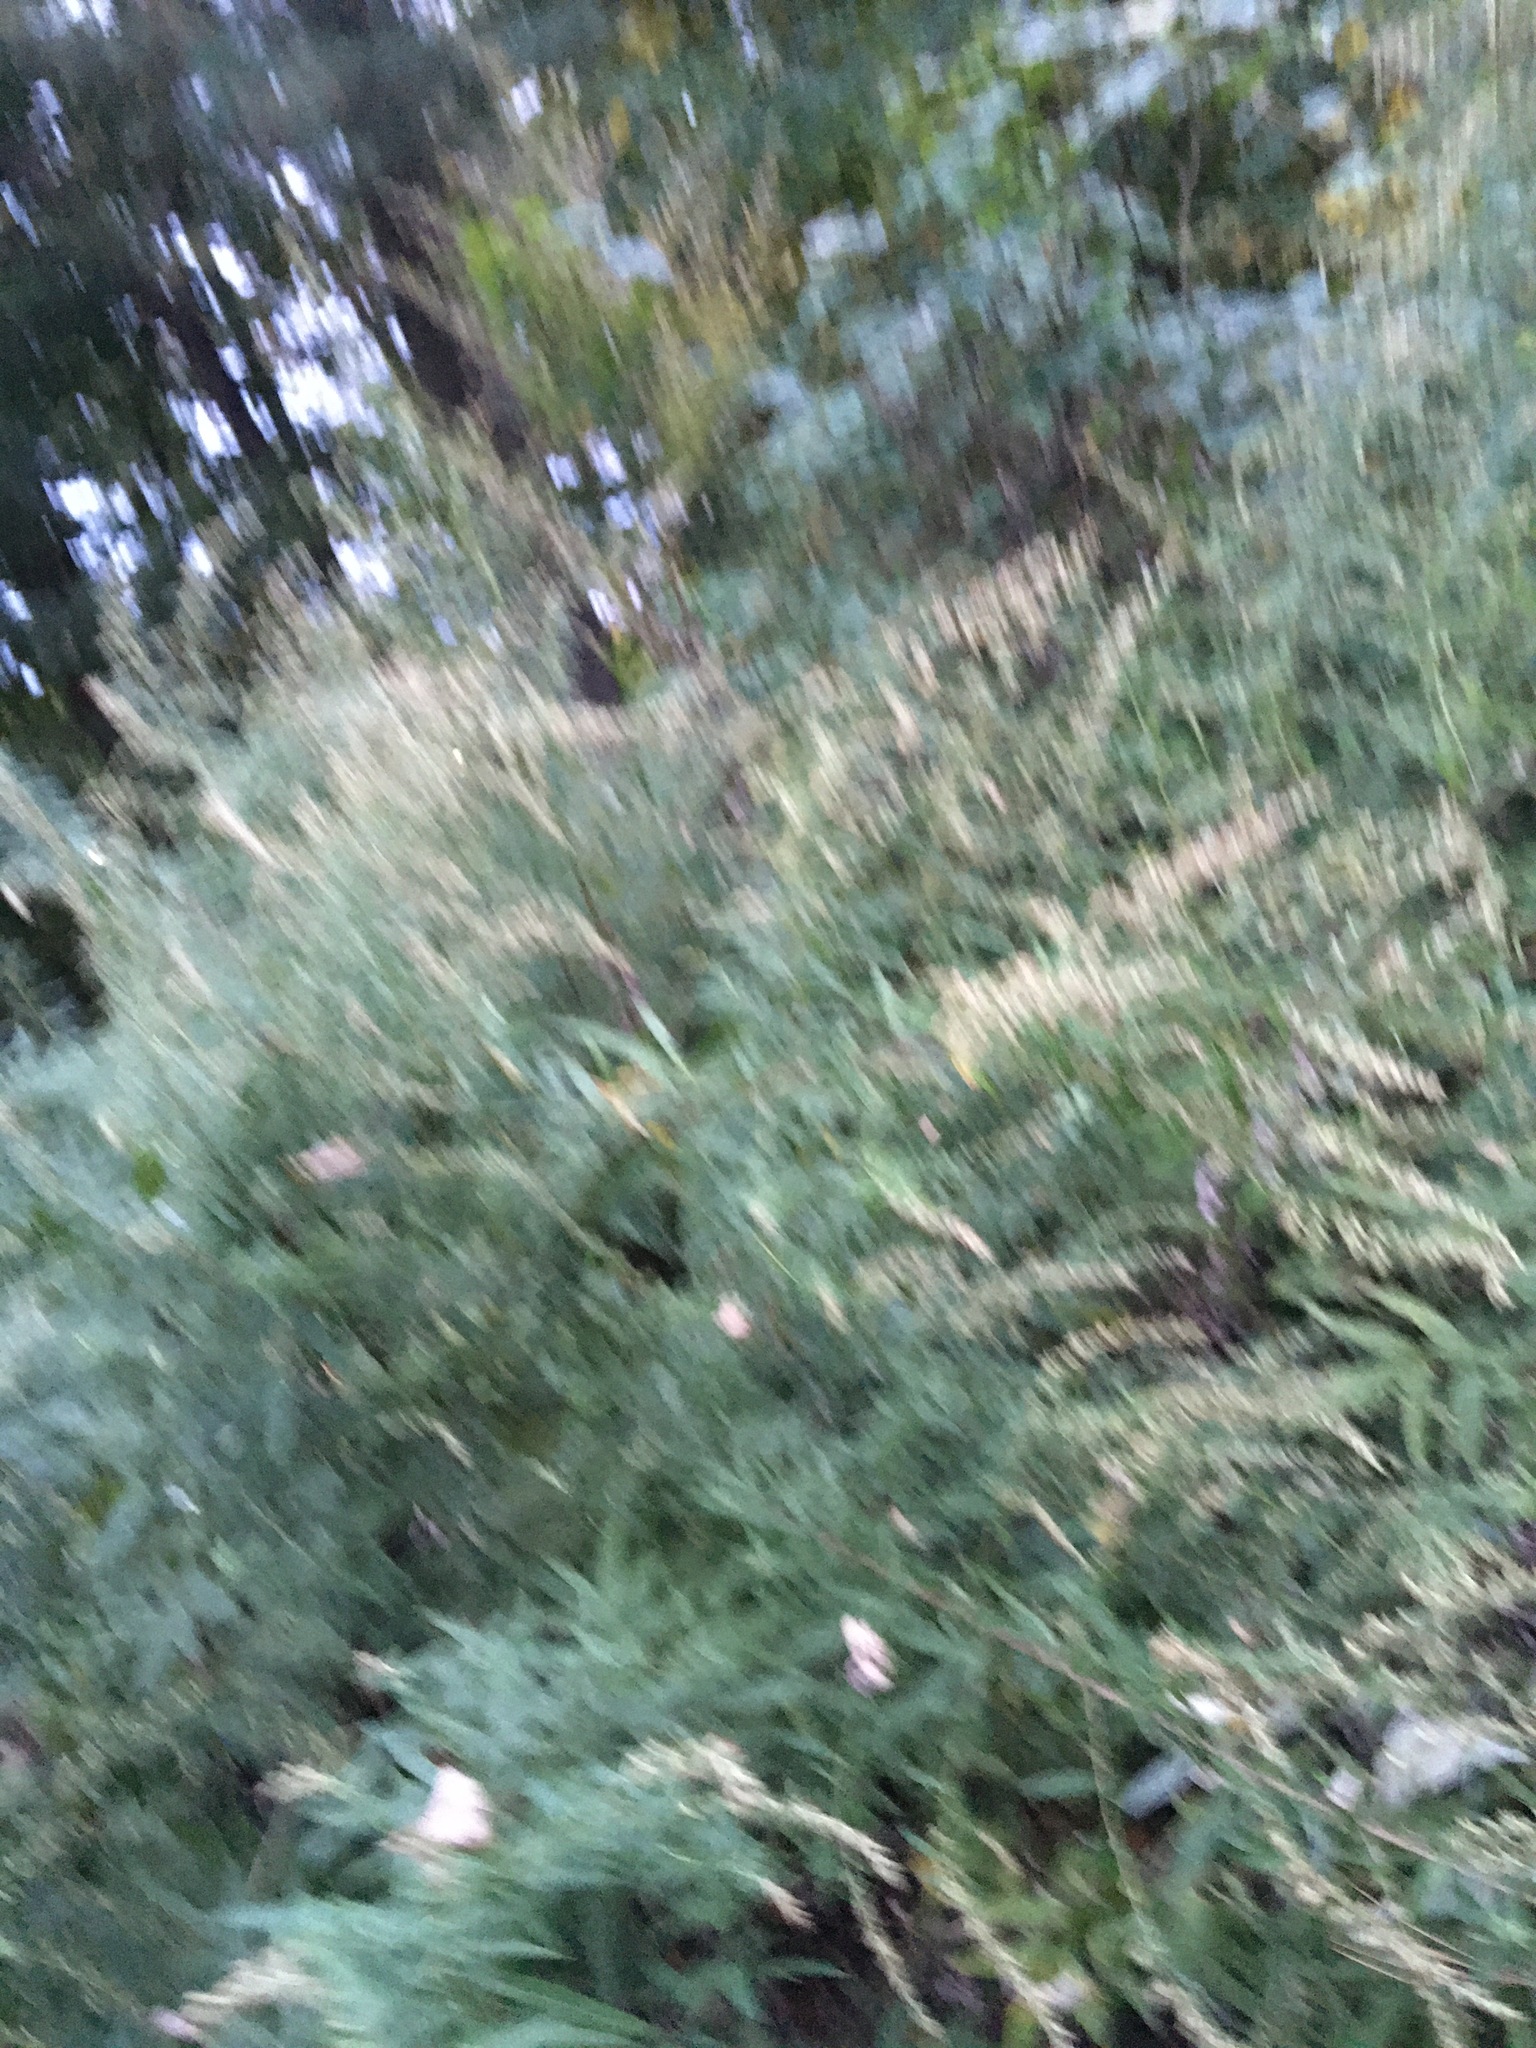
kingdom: Plantae
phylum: Tracheophyta
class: Magnoliopsida
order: Asterales
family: Asteraceae
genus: Artemisia
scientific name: Artemisia vulgaris
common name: Mugwort
